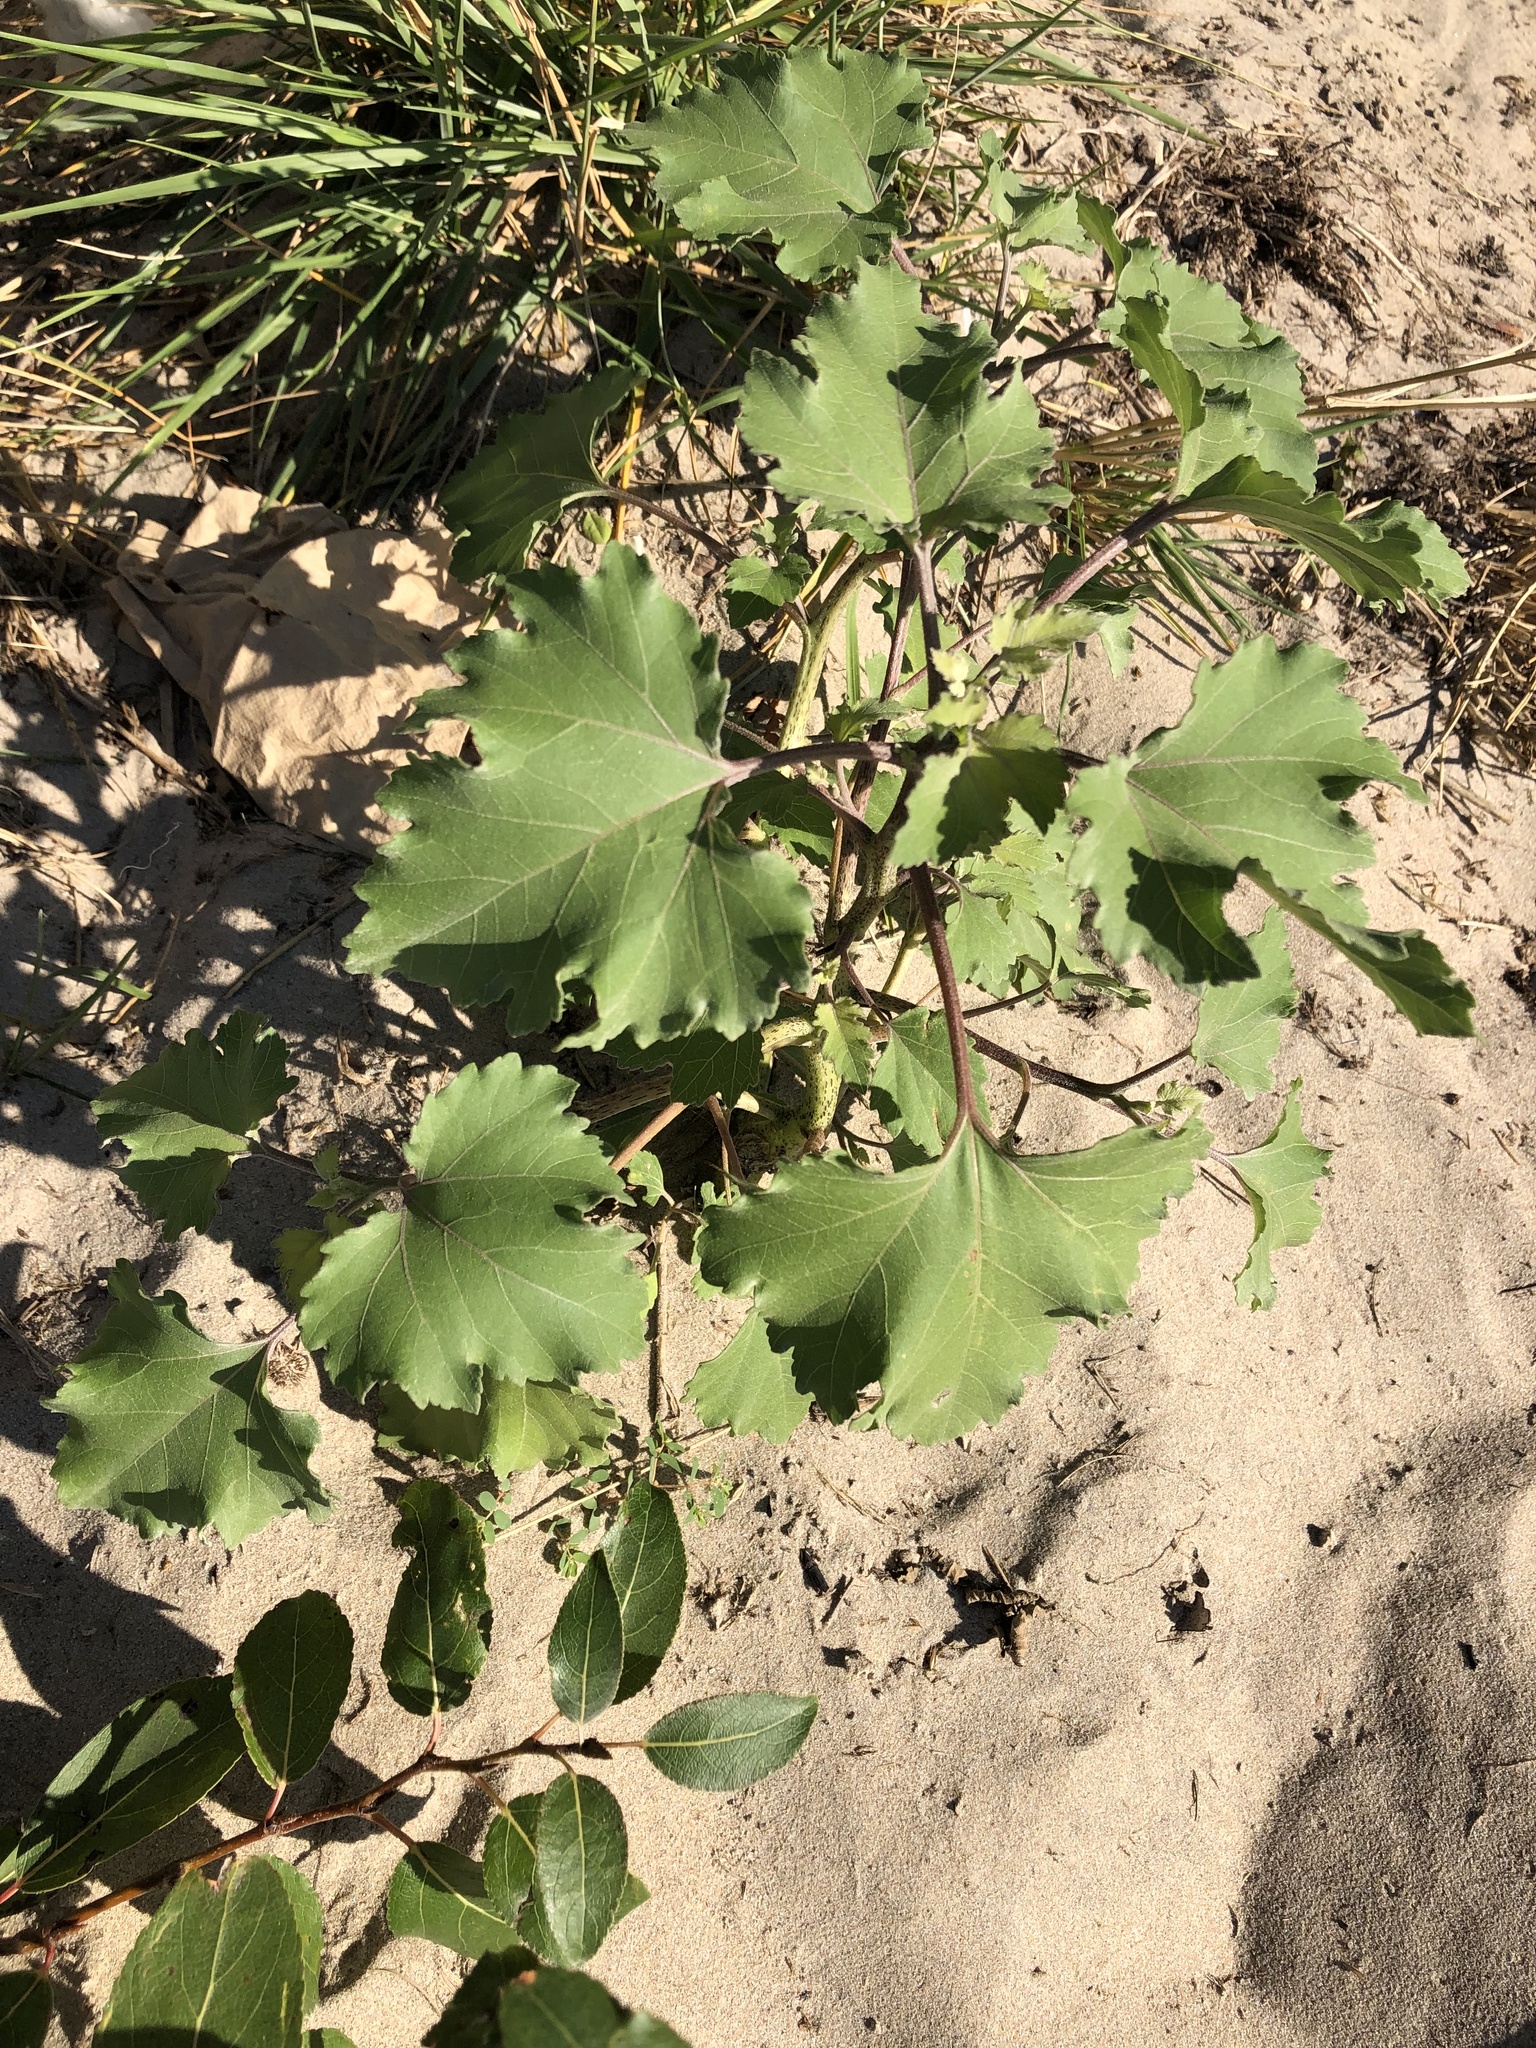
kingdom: Plantae
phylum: Tracheophyta
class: Magnoliopsida
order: Asterales
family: Asteraceae
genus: Xanthium
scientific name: Xanthium strumarium
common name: Rough cocklebur
